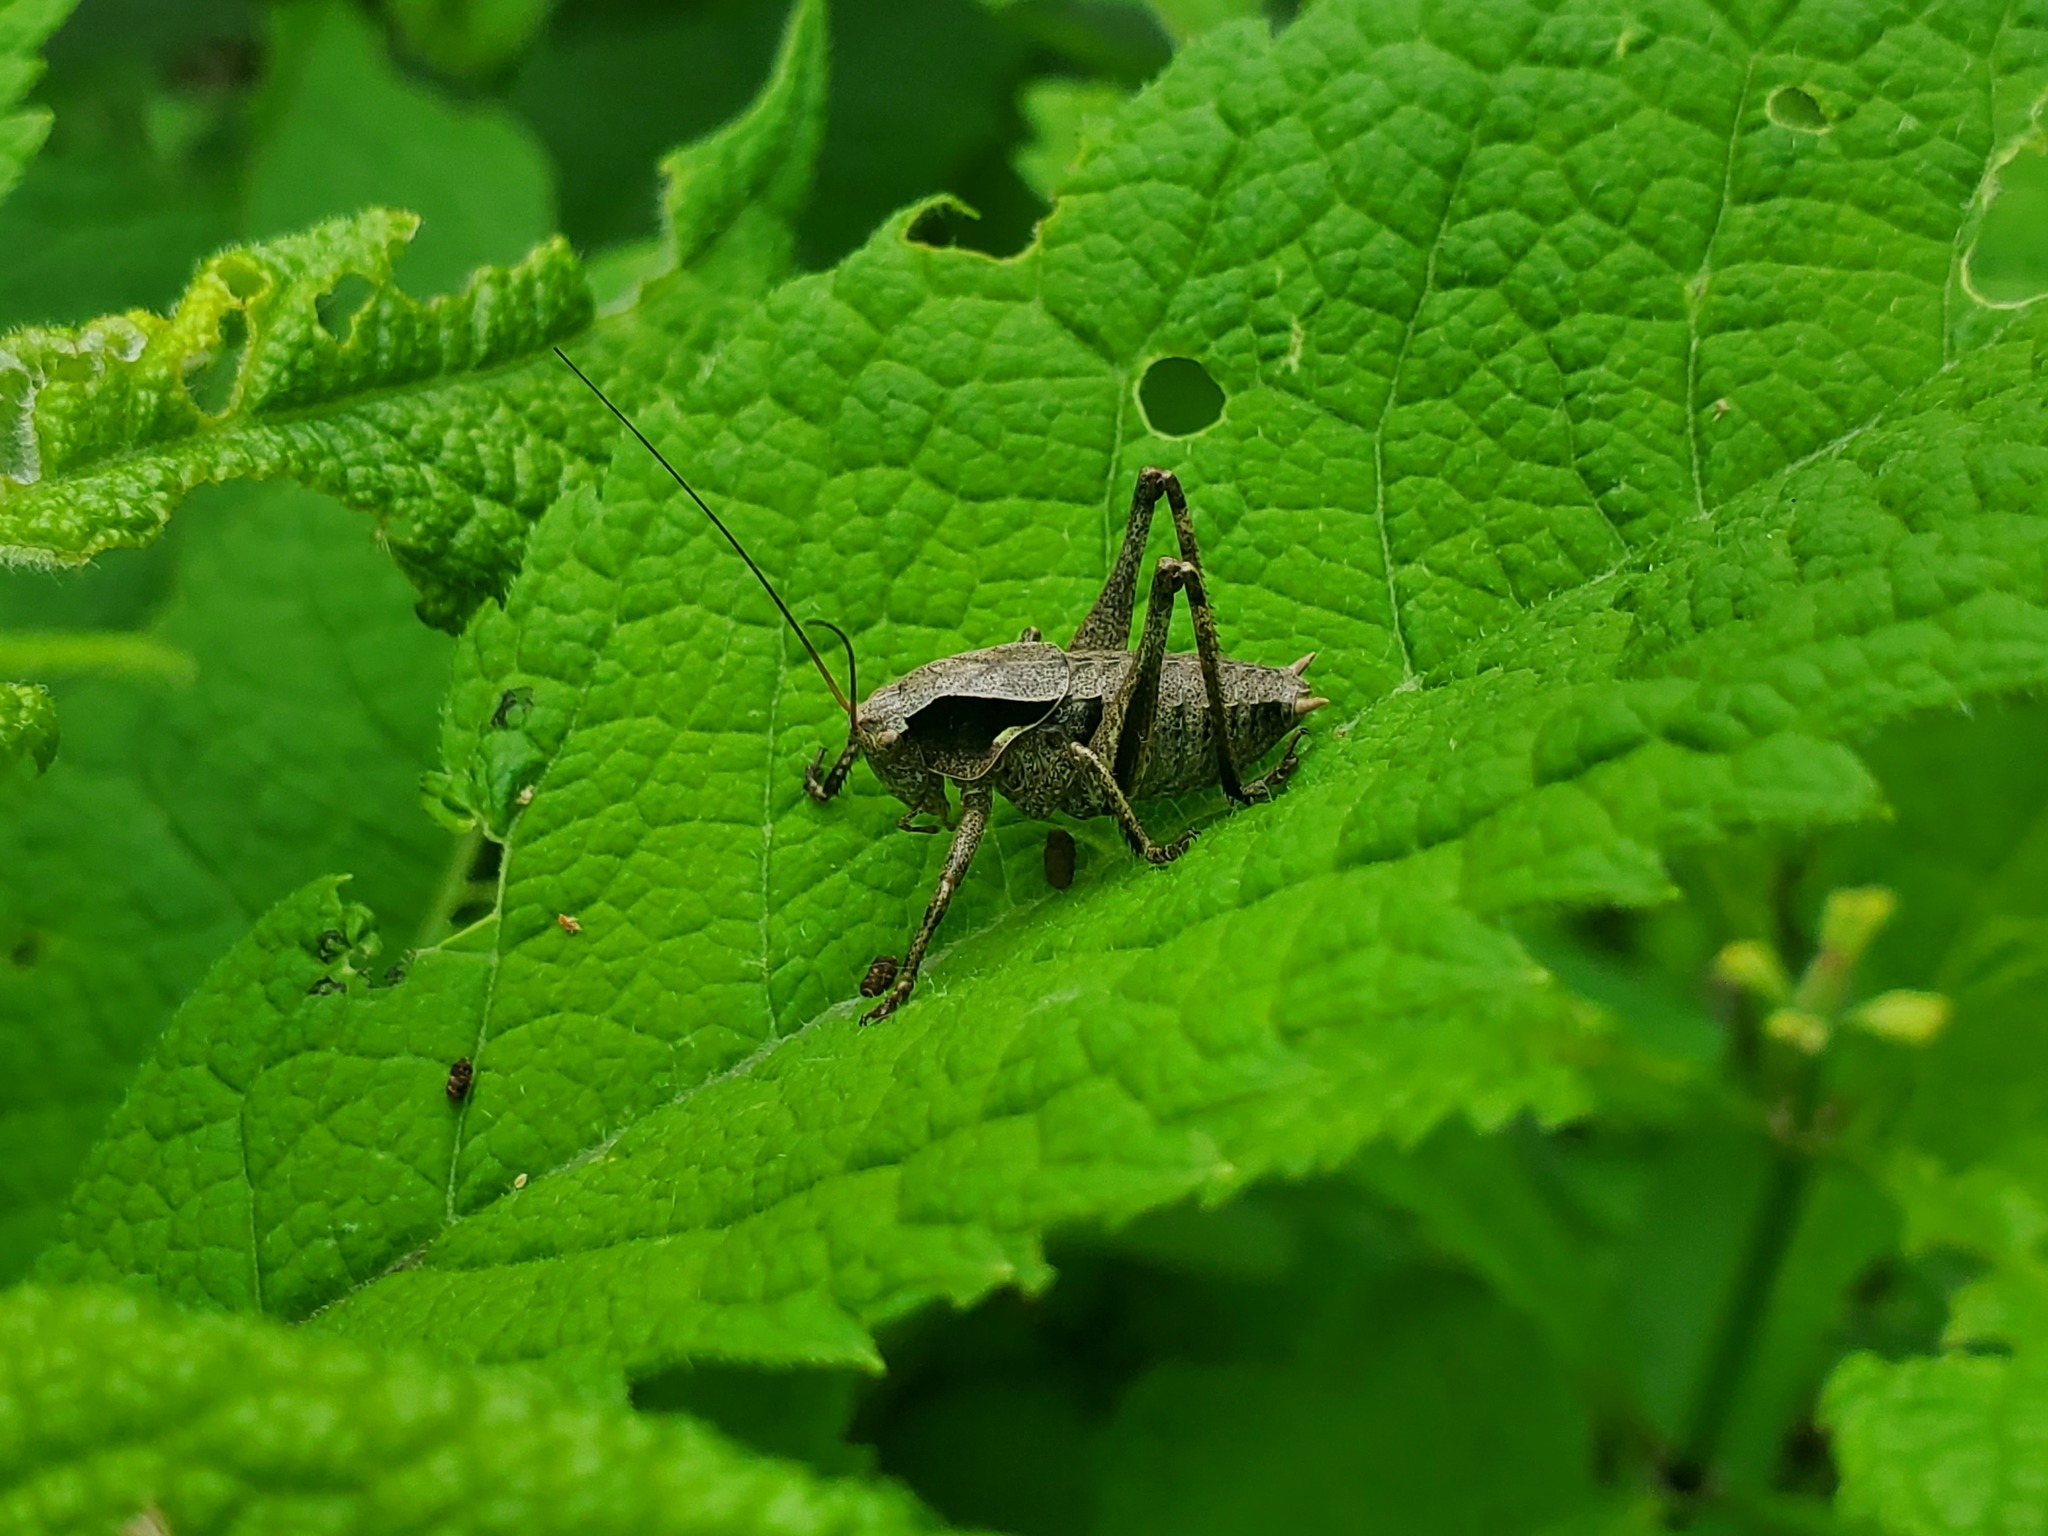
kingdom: Animalia
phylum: Arthropoda
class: Insecta
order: Orthoptera
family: Tettigoniidae
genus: Atlanticus
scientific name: Atlanticus testaceus
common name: Protean shieldback
